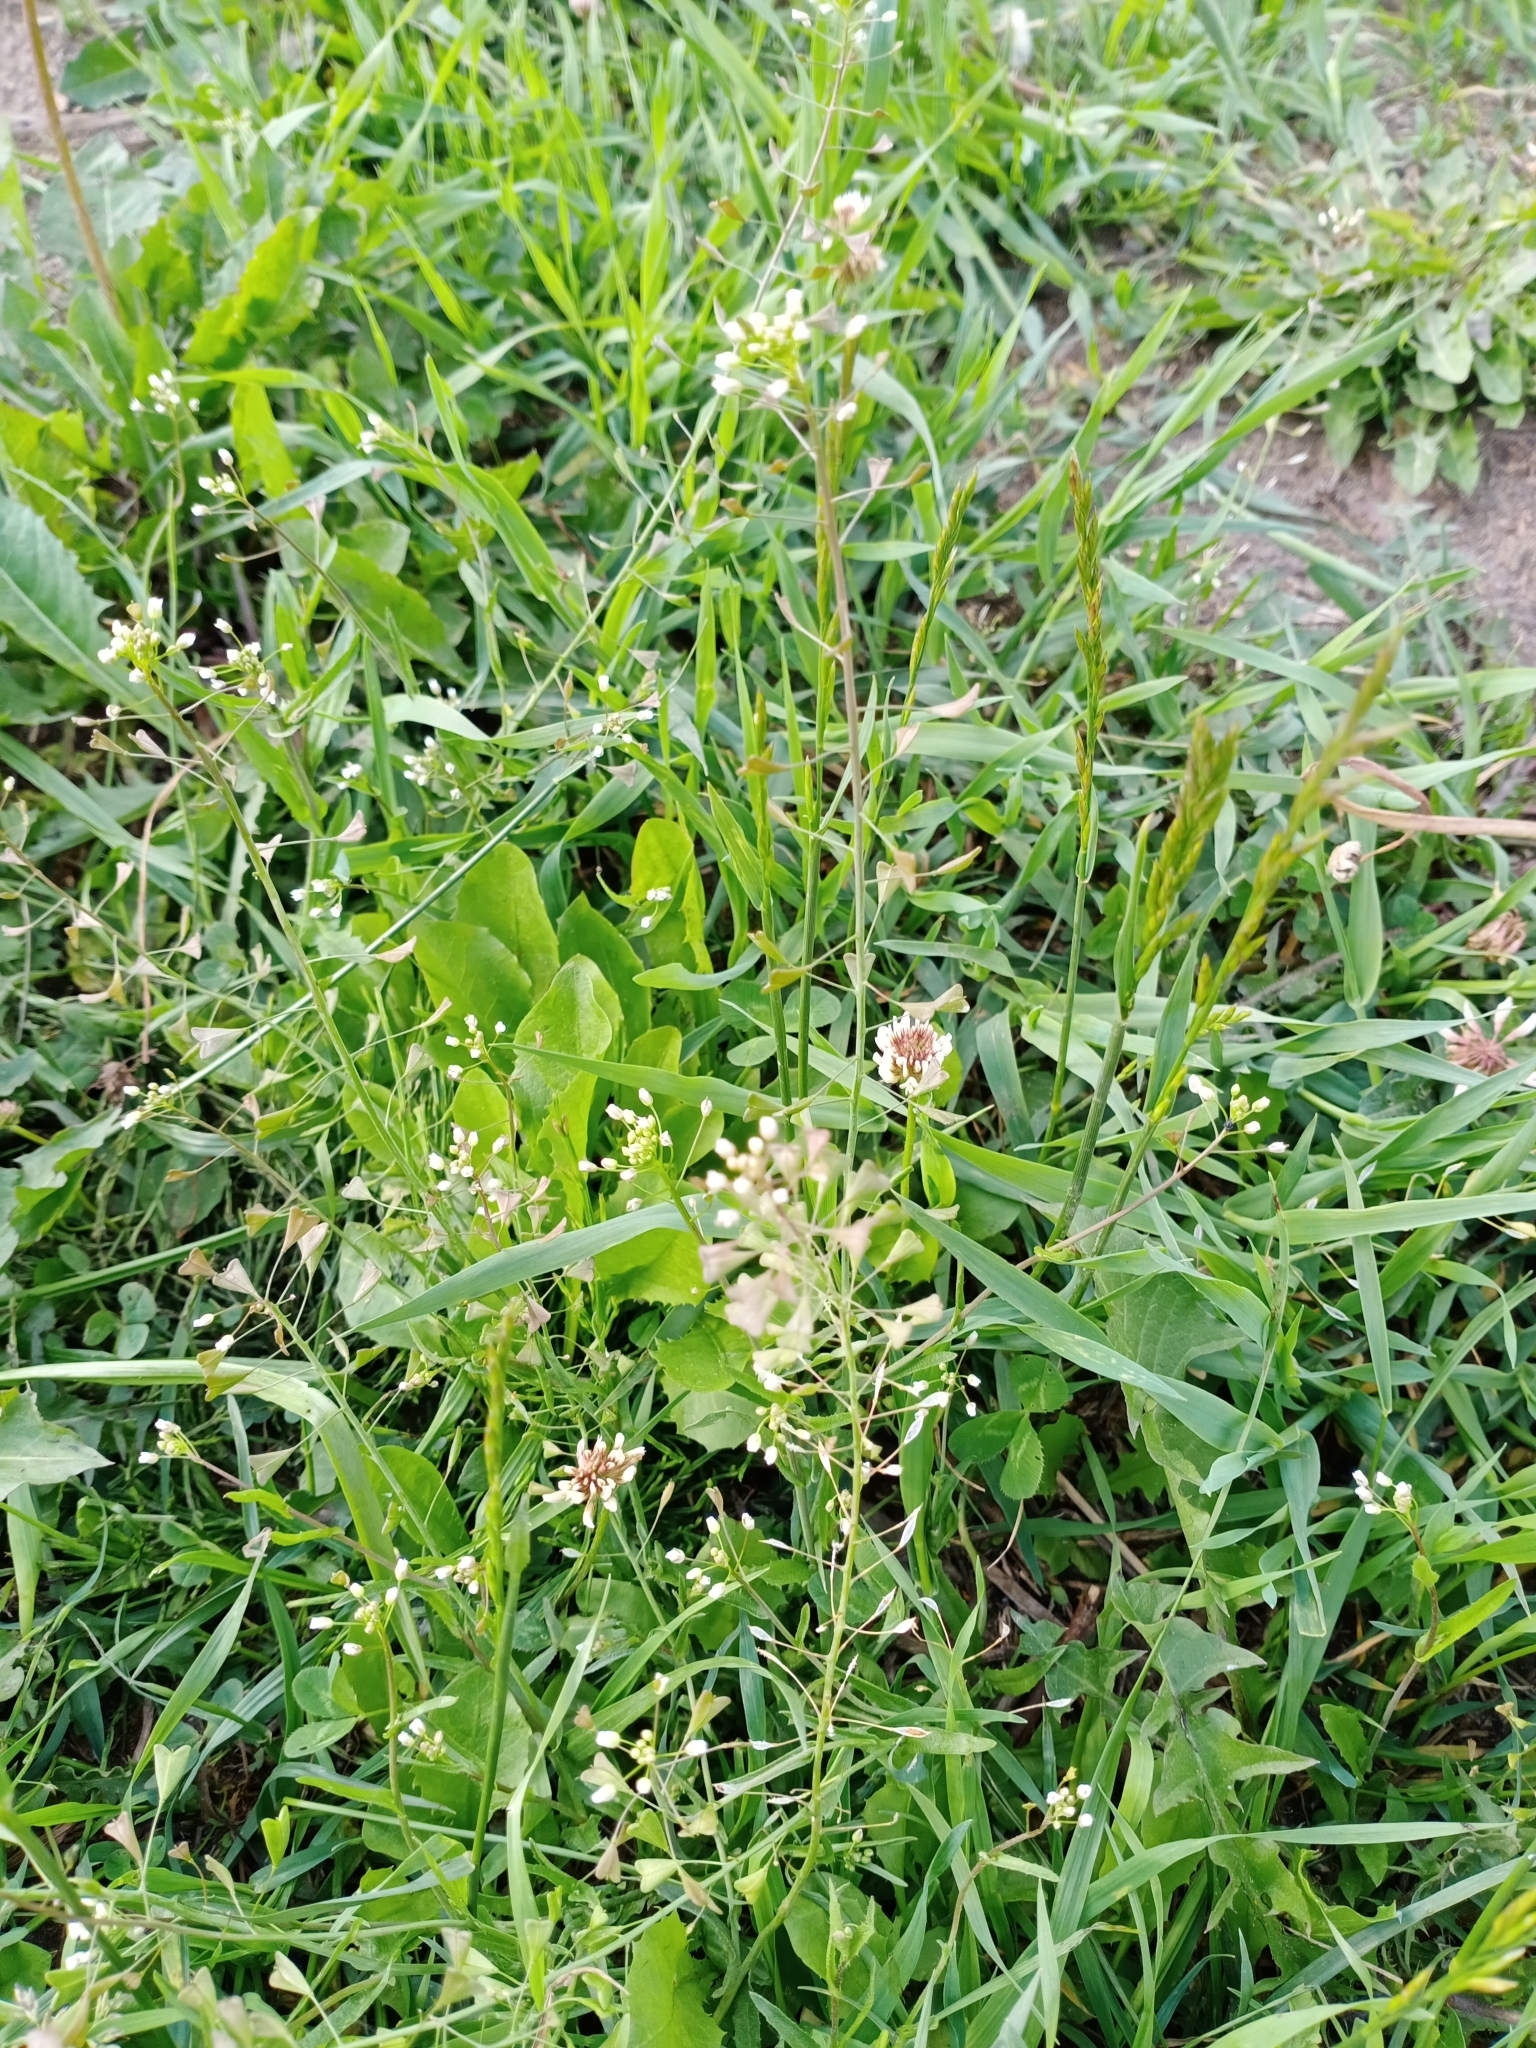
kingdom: Plantae
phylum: Tracheophyta
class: Magnoliopsida
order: Brassicales
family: Brassicaceae
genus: Capsella
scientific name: Capsella bursa-pastoris
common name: Shepherd's purse
